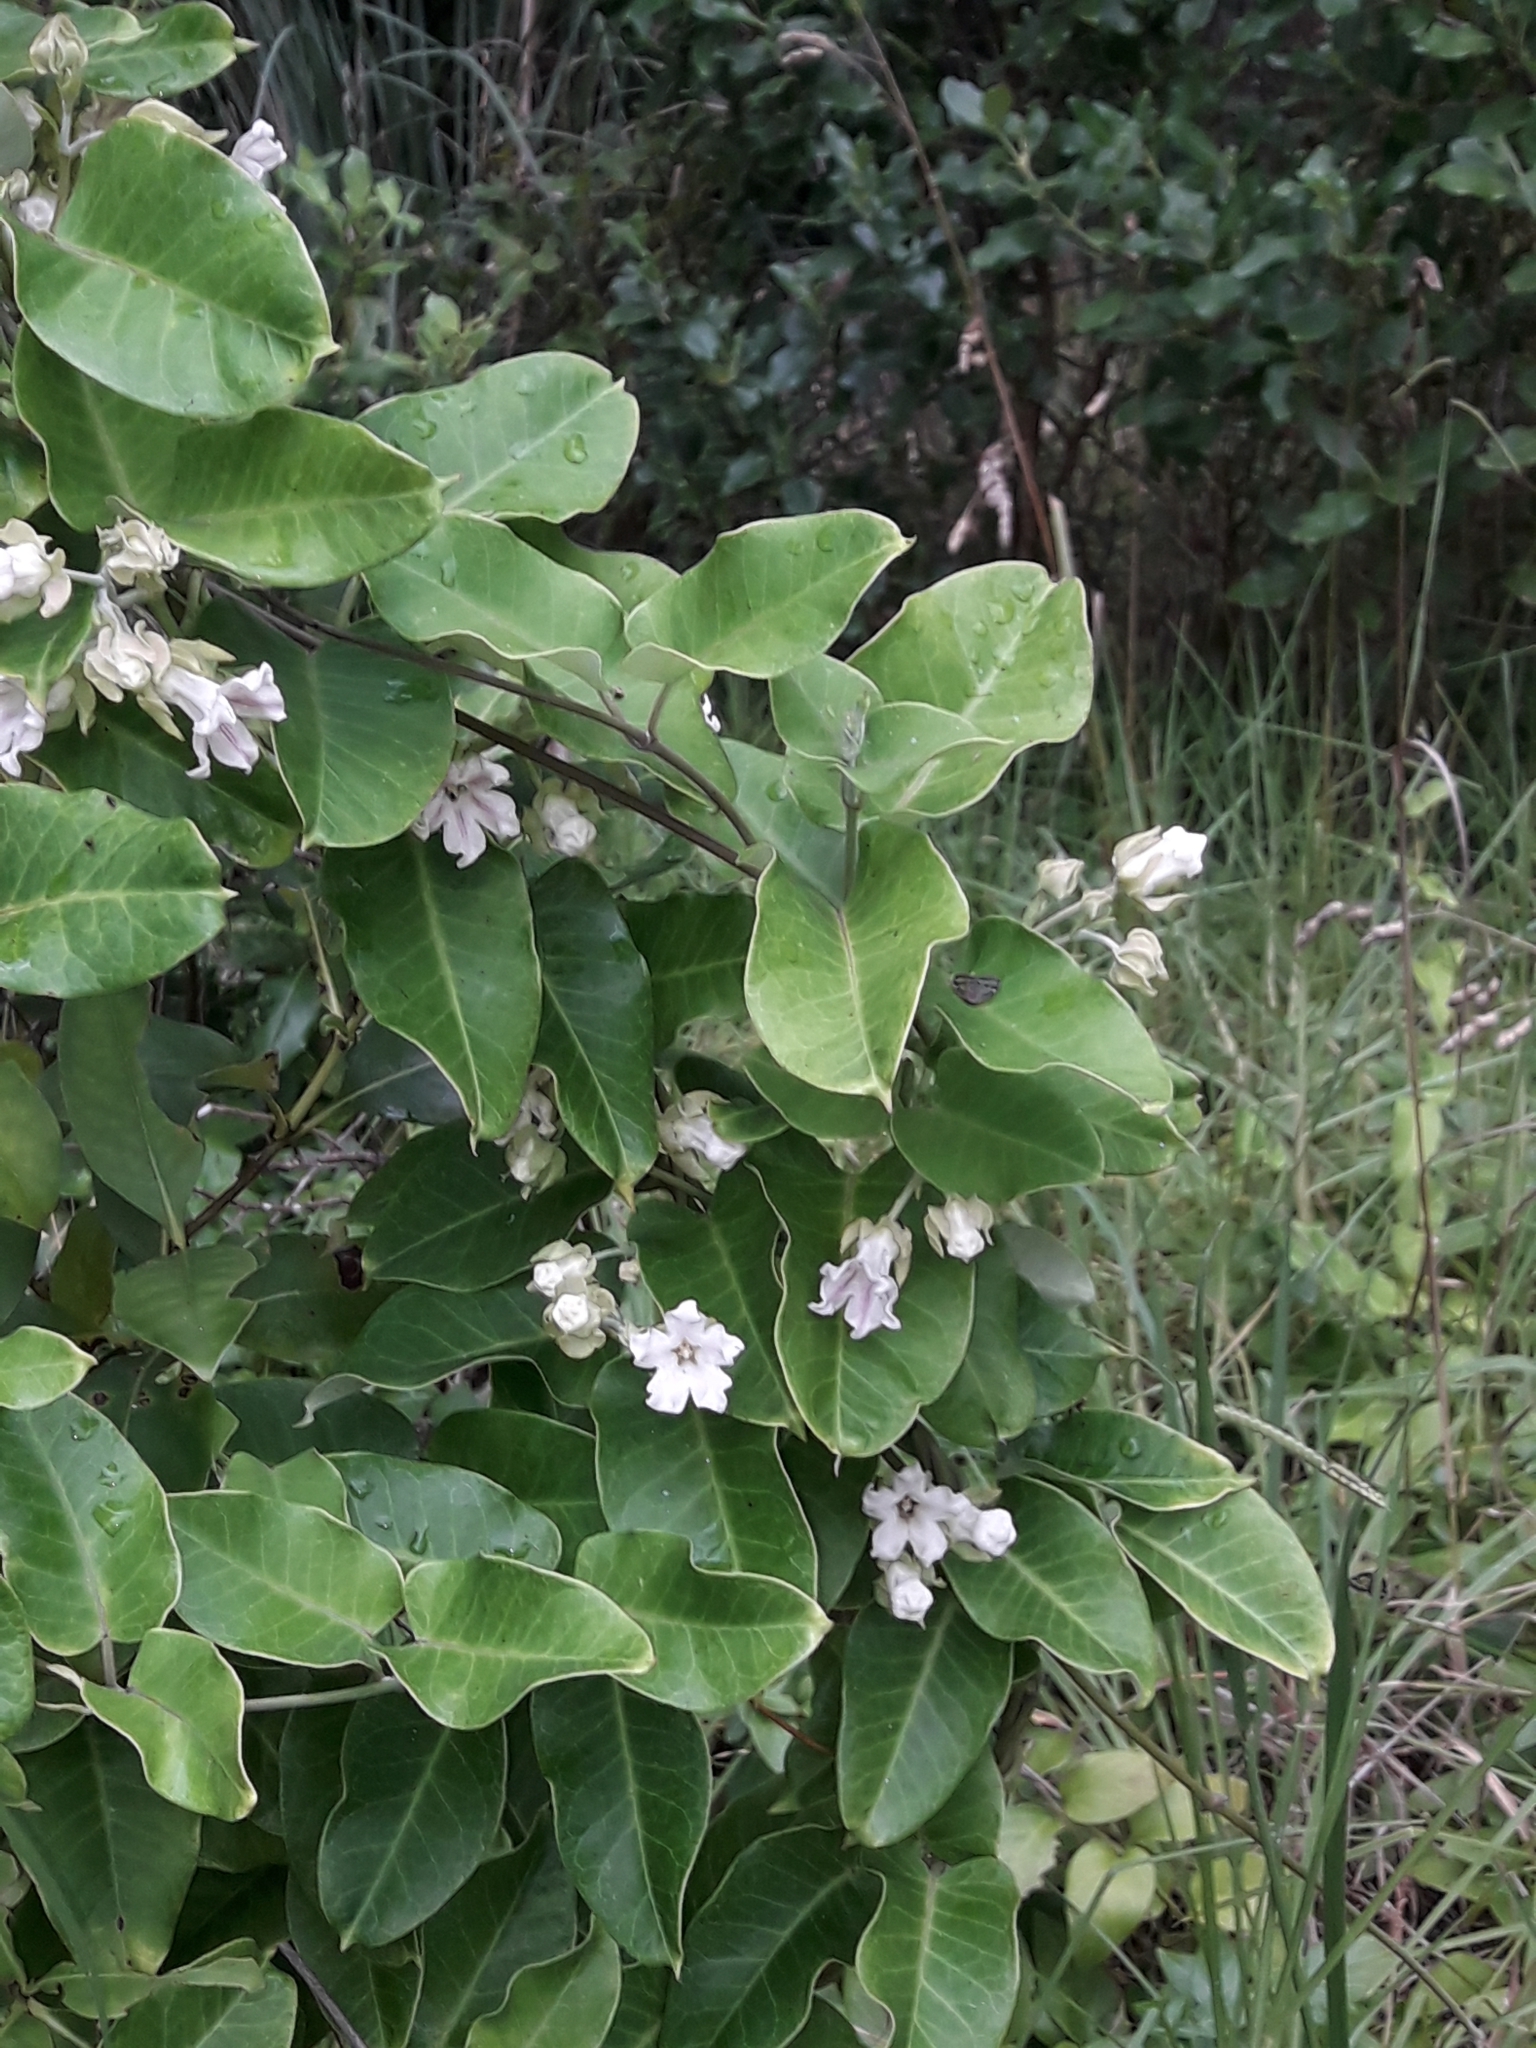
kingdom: Plantae
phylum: Tracheophyta
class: Magnoliopsida
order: Gentianales
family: Apocynaceae
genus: Araujia
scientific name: Araujia sericifera
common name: White bladderflower
